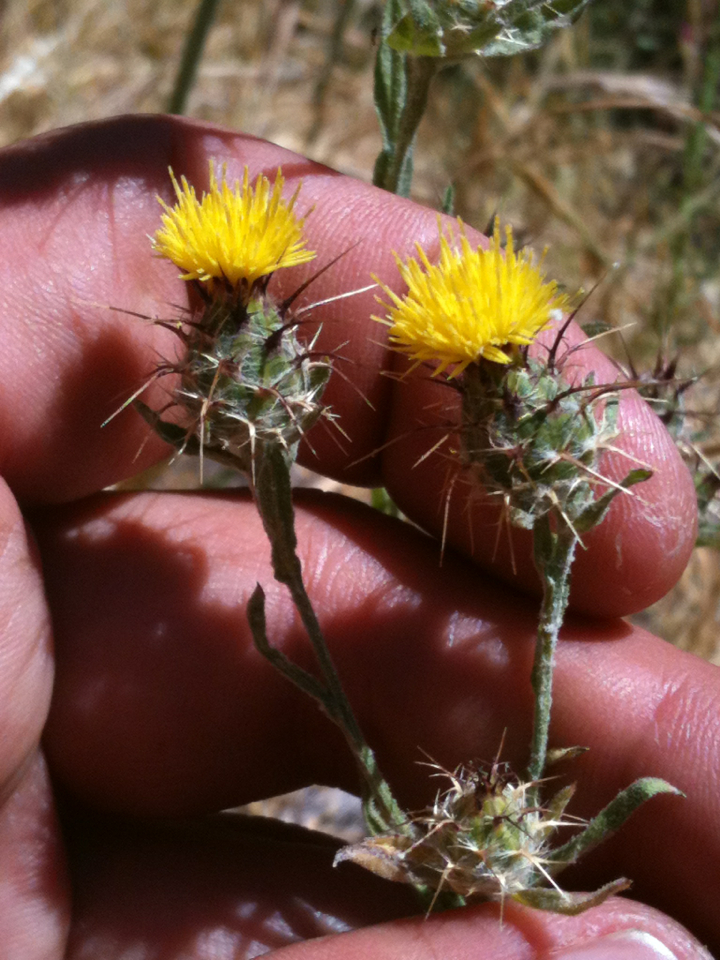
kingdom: Plantae
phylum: Tracheophyta
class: Magnoliopsida
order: Asterales
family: Asteraceae
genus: Centaurea
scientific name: Centaurea melitensis
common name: Maltese star-thistle
